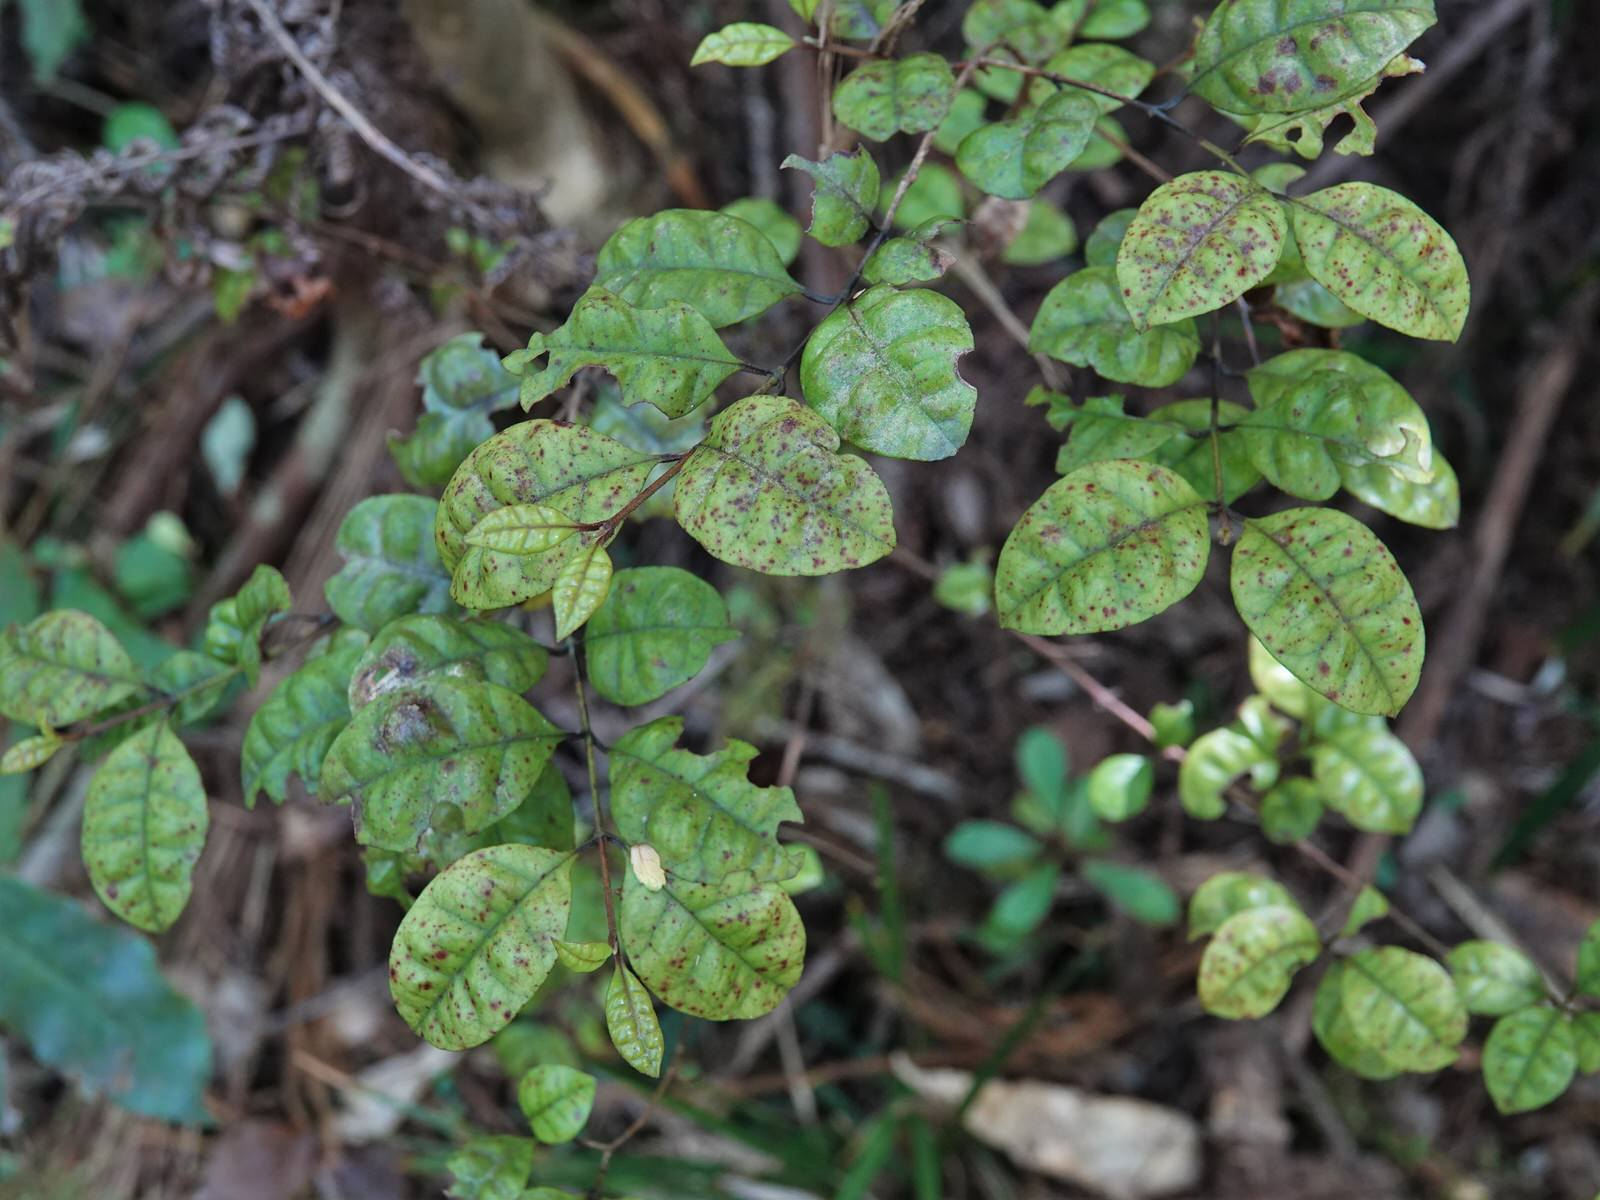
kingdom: Plantae
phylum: Tracheophyta
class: Magnoliopsida
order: Myrtales
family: Myrtaceae
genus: Lophomyrtus
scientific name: Lophomyrtus bullata
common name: Rama rama
